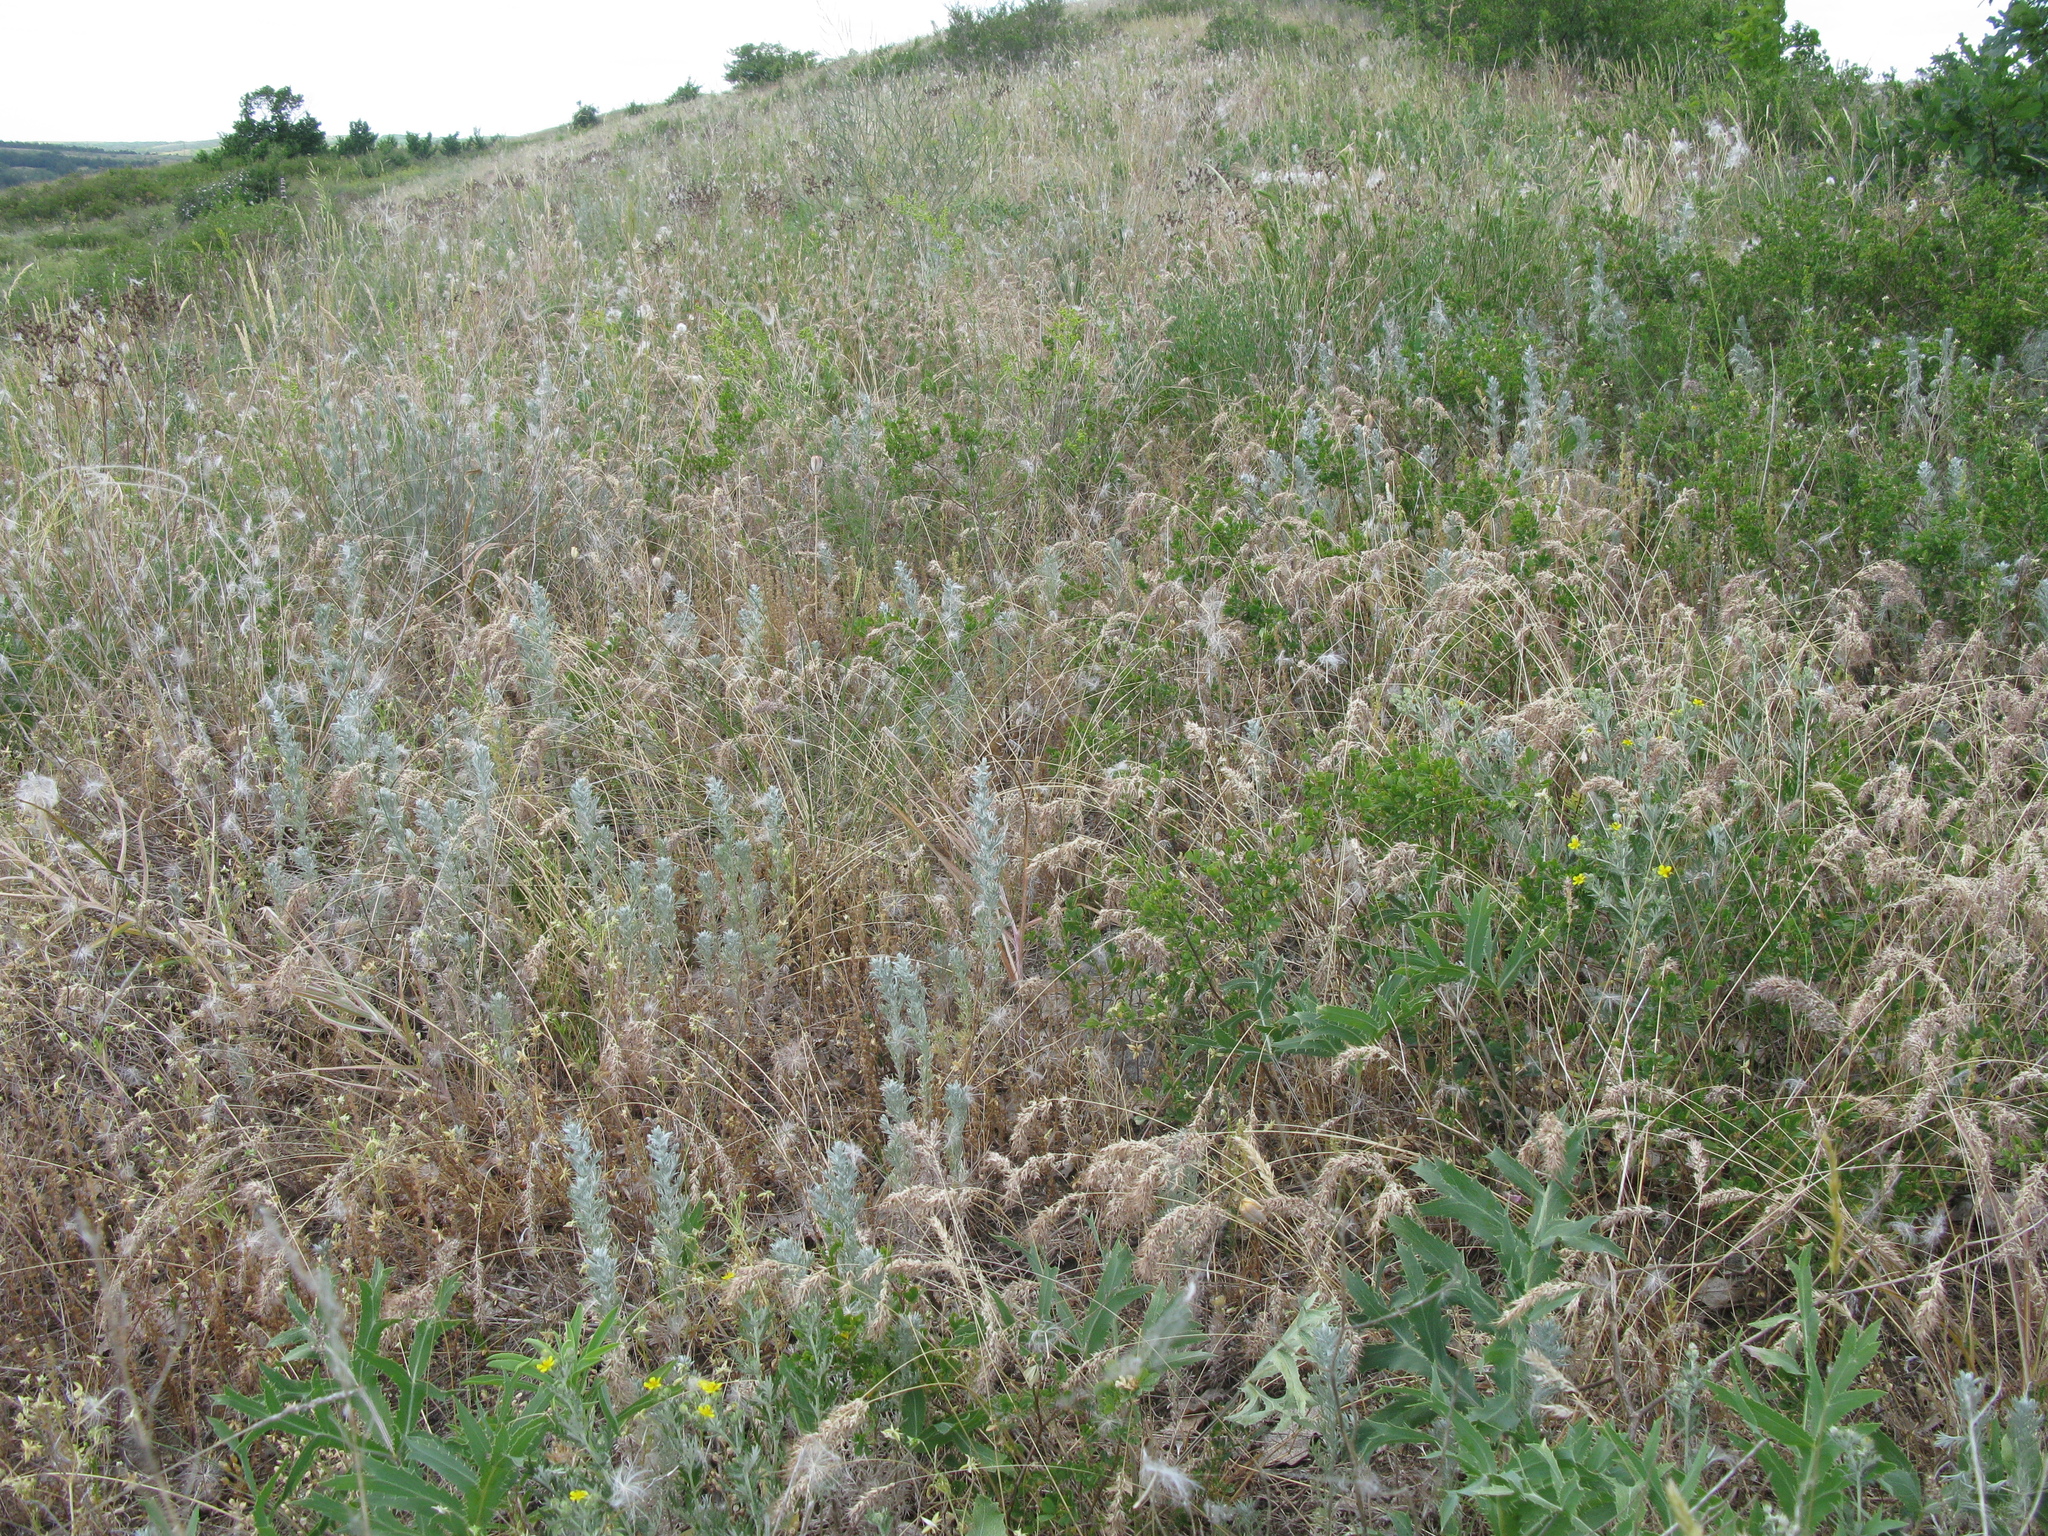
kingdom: Plantae
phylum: Tracheophyta
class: Magnoliopsida
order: Asterales
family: Asteraceae
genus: Artemisia
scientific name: Artemisia austriaca
